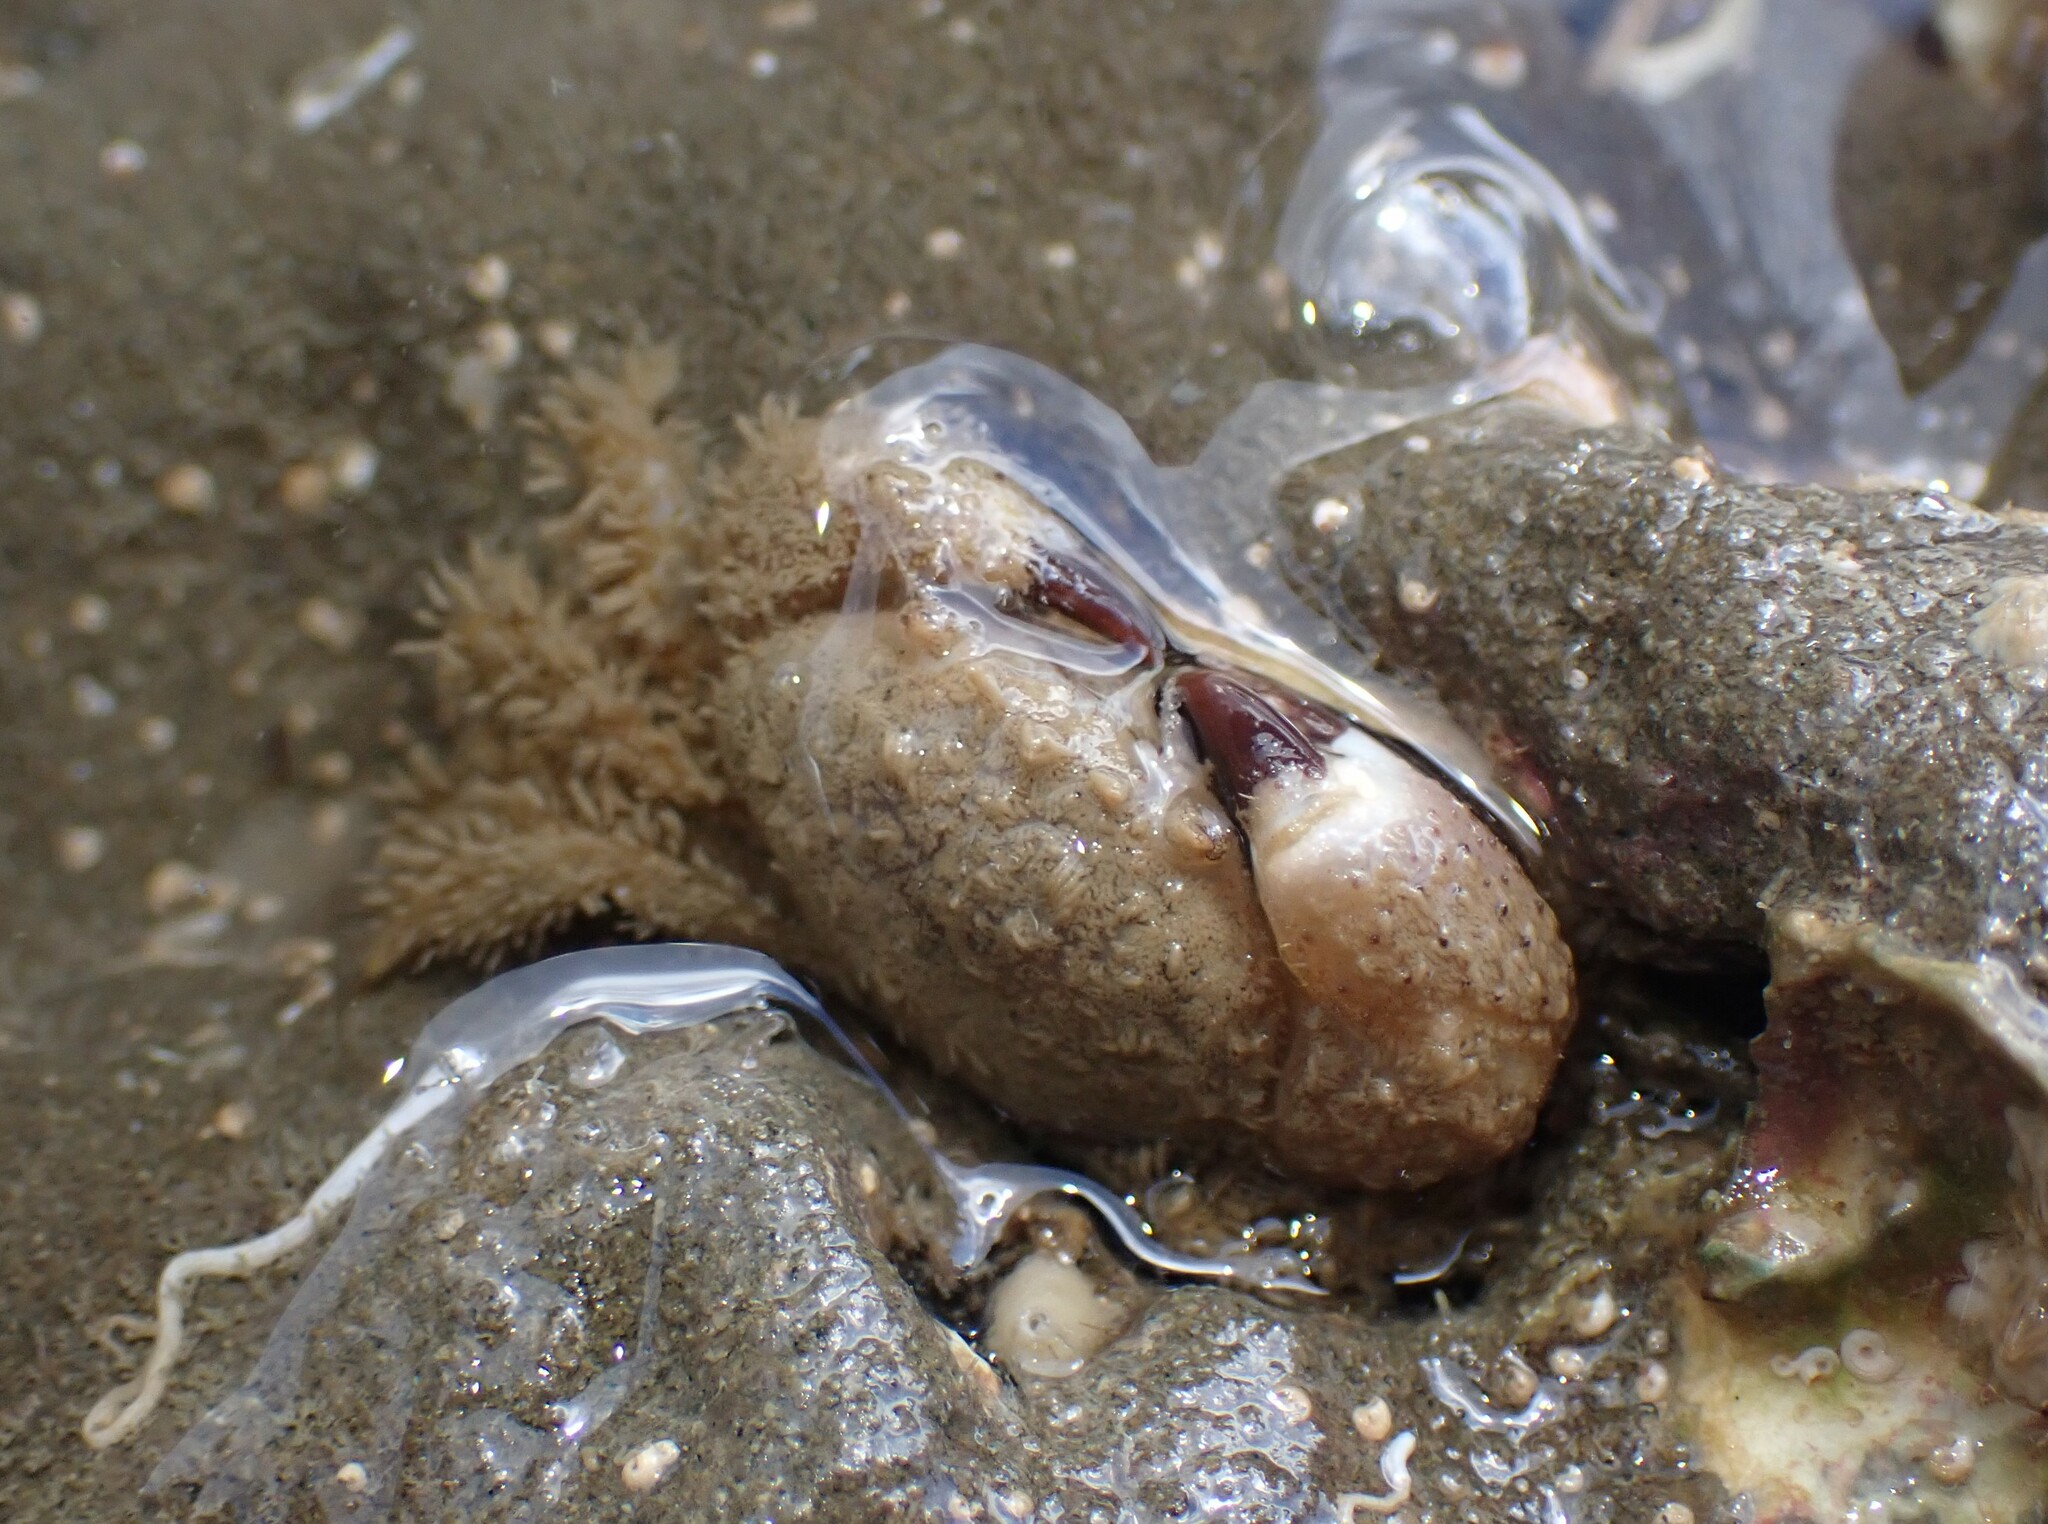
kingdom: Animalia
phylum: Arthropoda
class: Malacostraca
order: Decapoda
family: Pilumnidae
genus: Pilumnus
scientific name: Pilumnus lumpinus
